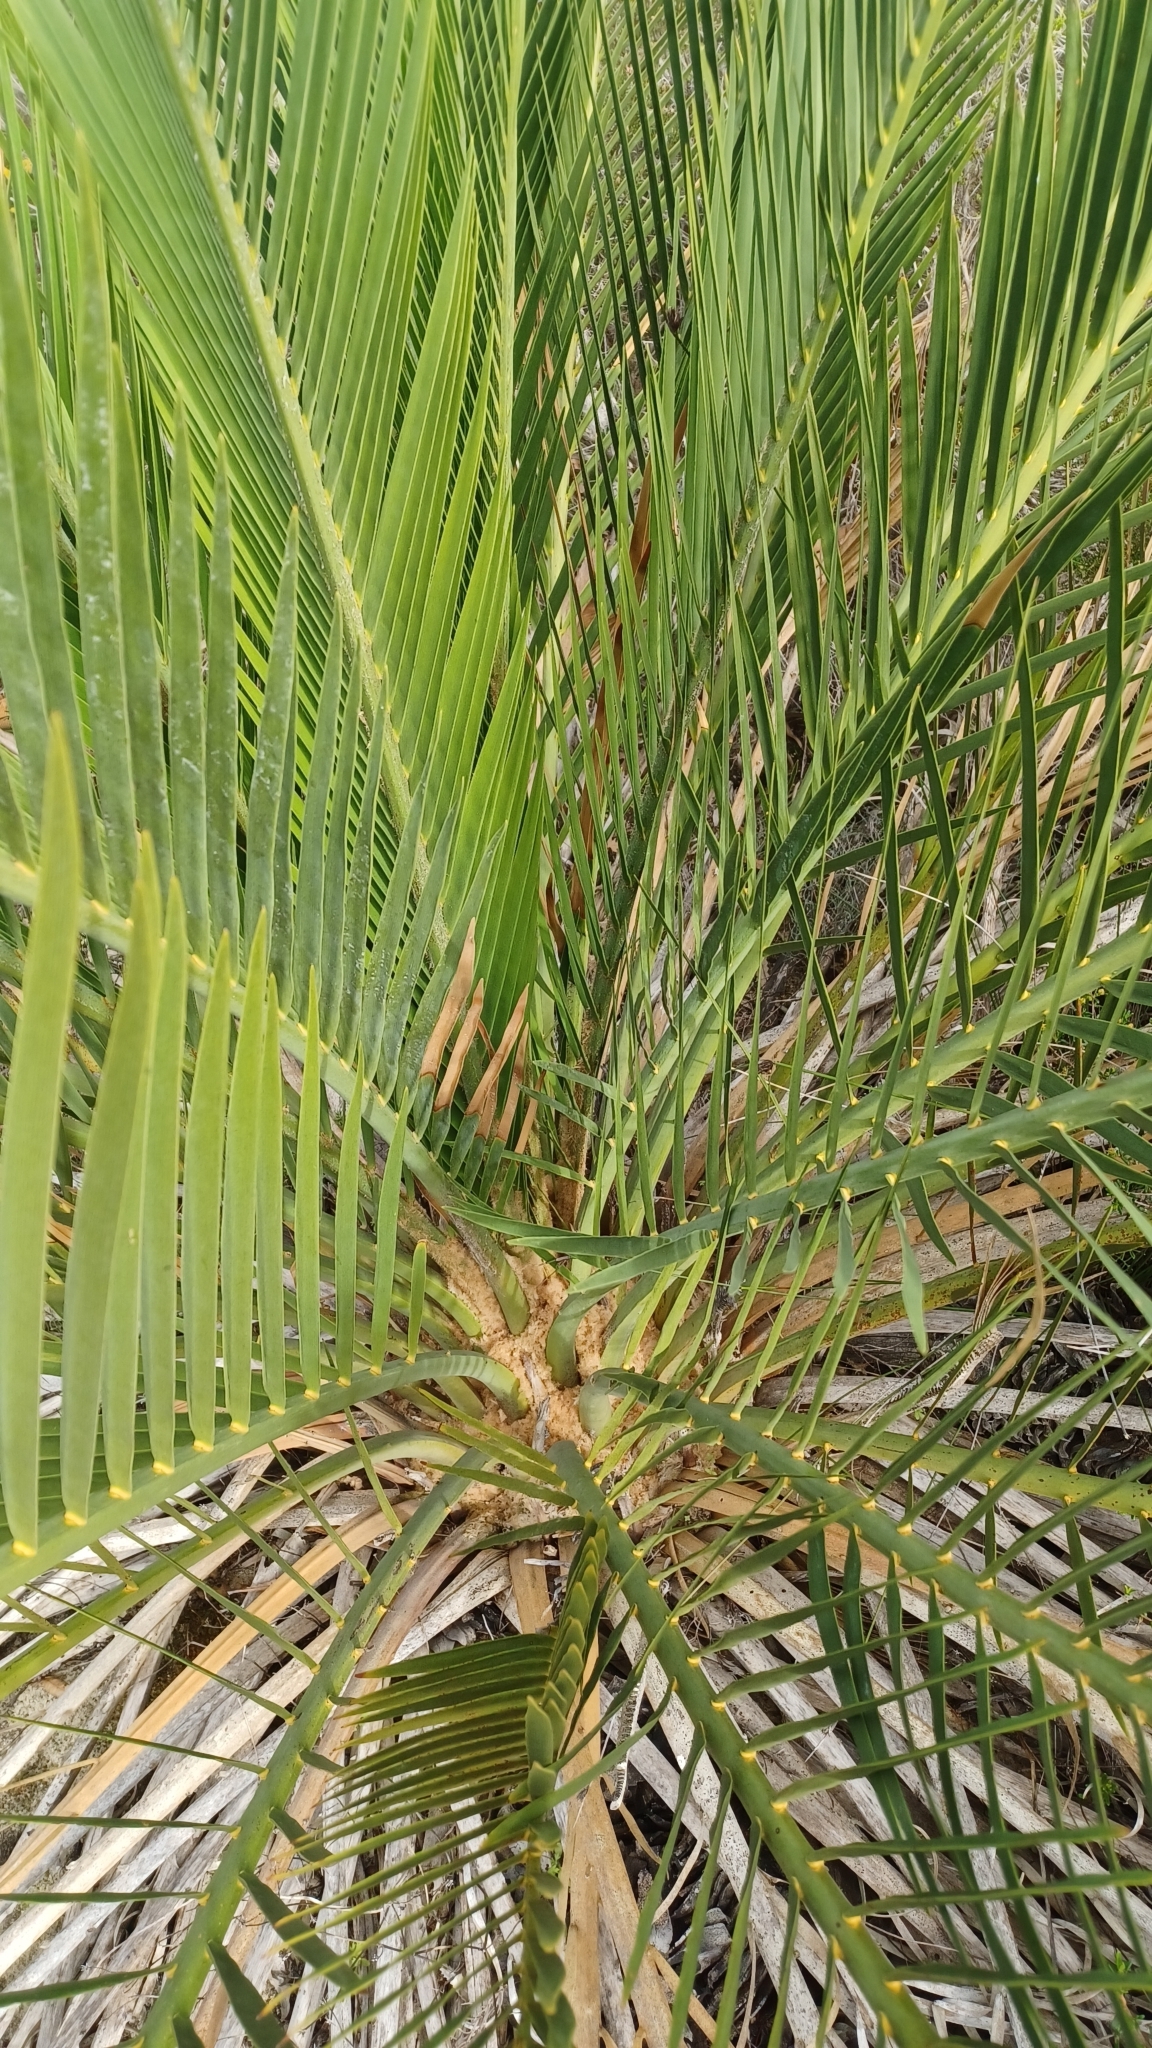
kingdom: Plantae
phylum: Tracheophyta
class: Cycadopsida
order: Cycadales
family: Zamiaceae
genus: Macrozamia
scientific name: Macrozamia fraseri
